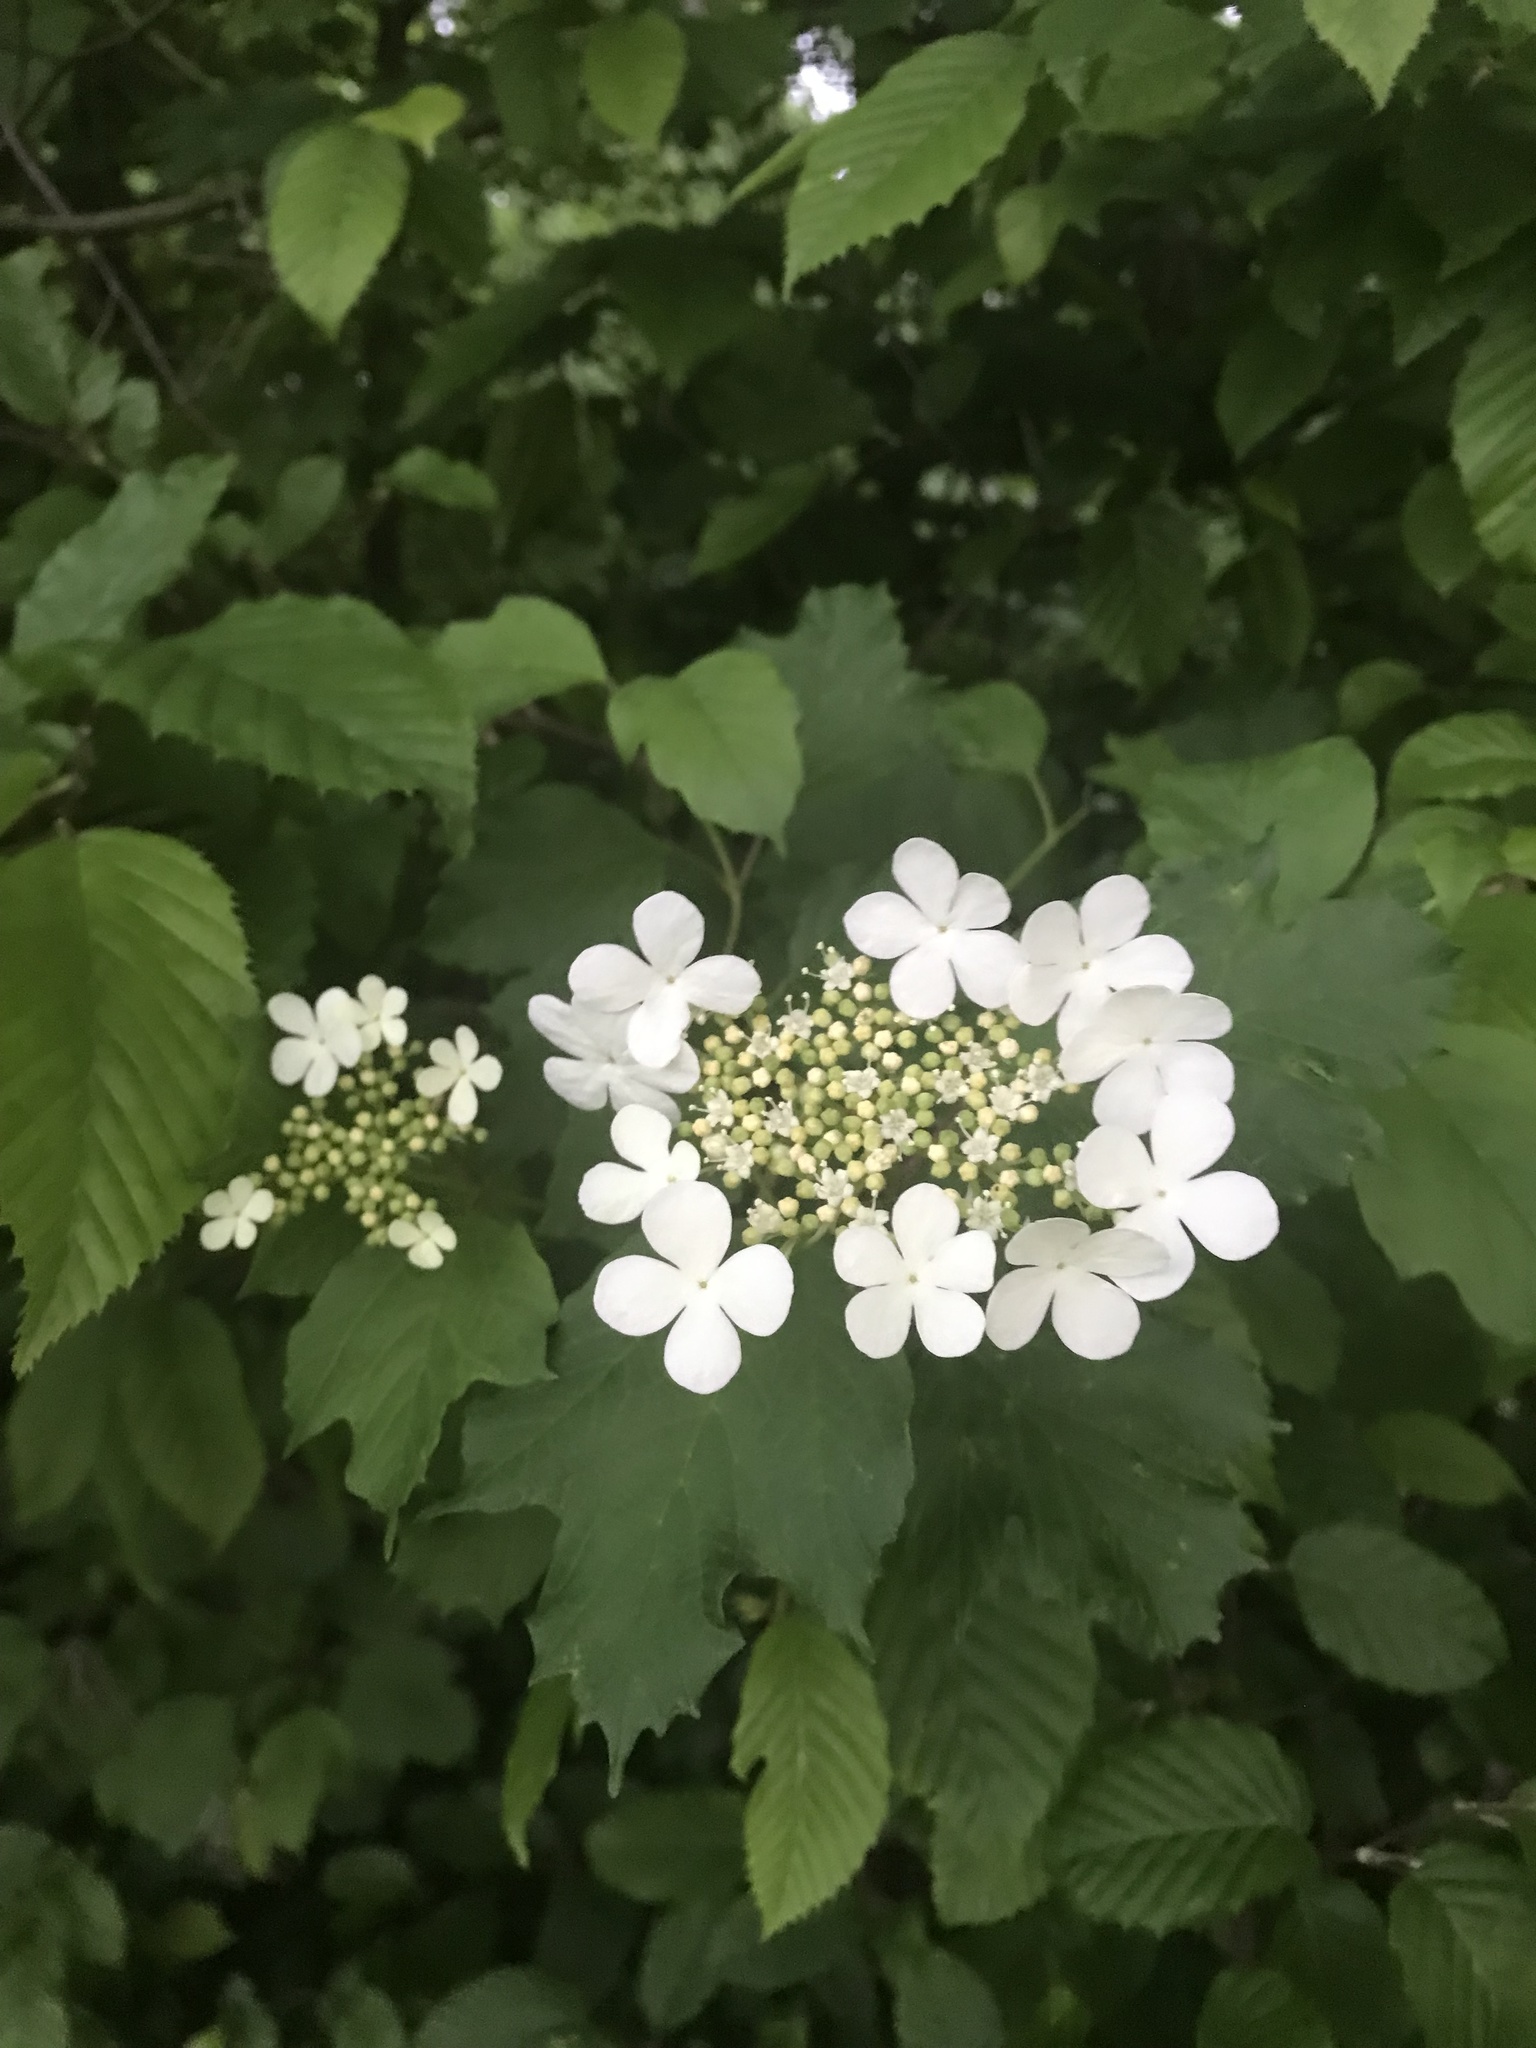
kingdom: Plantae
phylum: Tracheophyta
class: Magnoliopsida
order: Dipsacales
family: Viburnaceae
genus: Viburnum
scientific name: Viburnum opulus
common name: Guelder-rose
